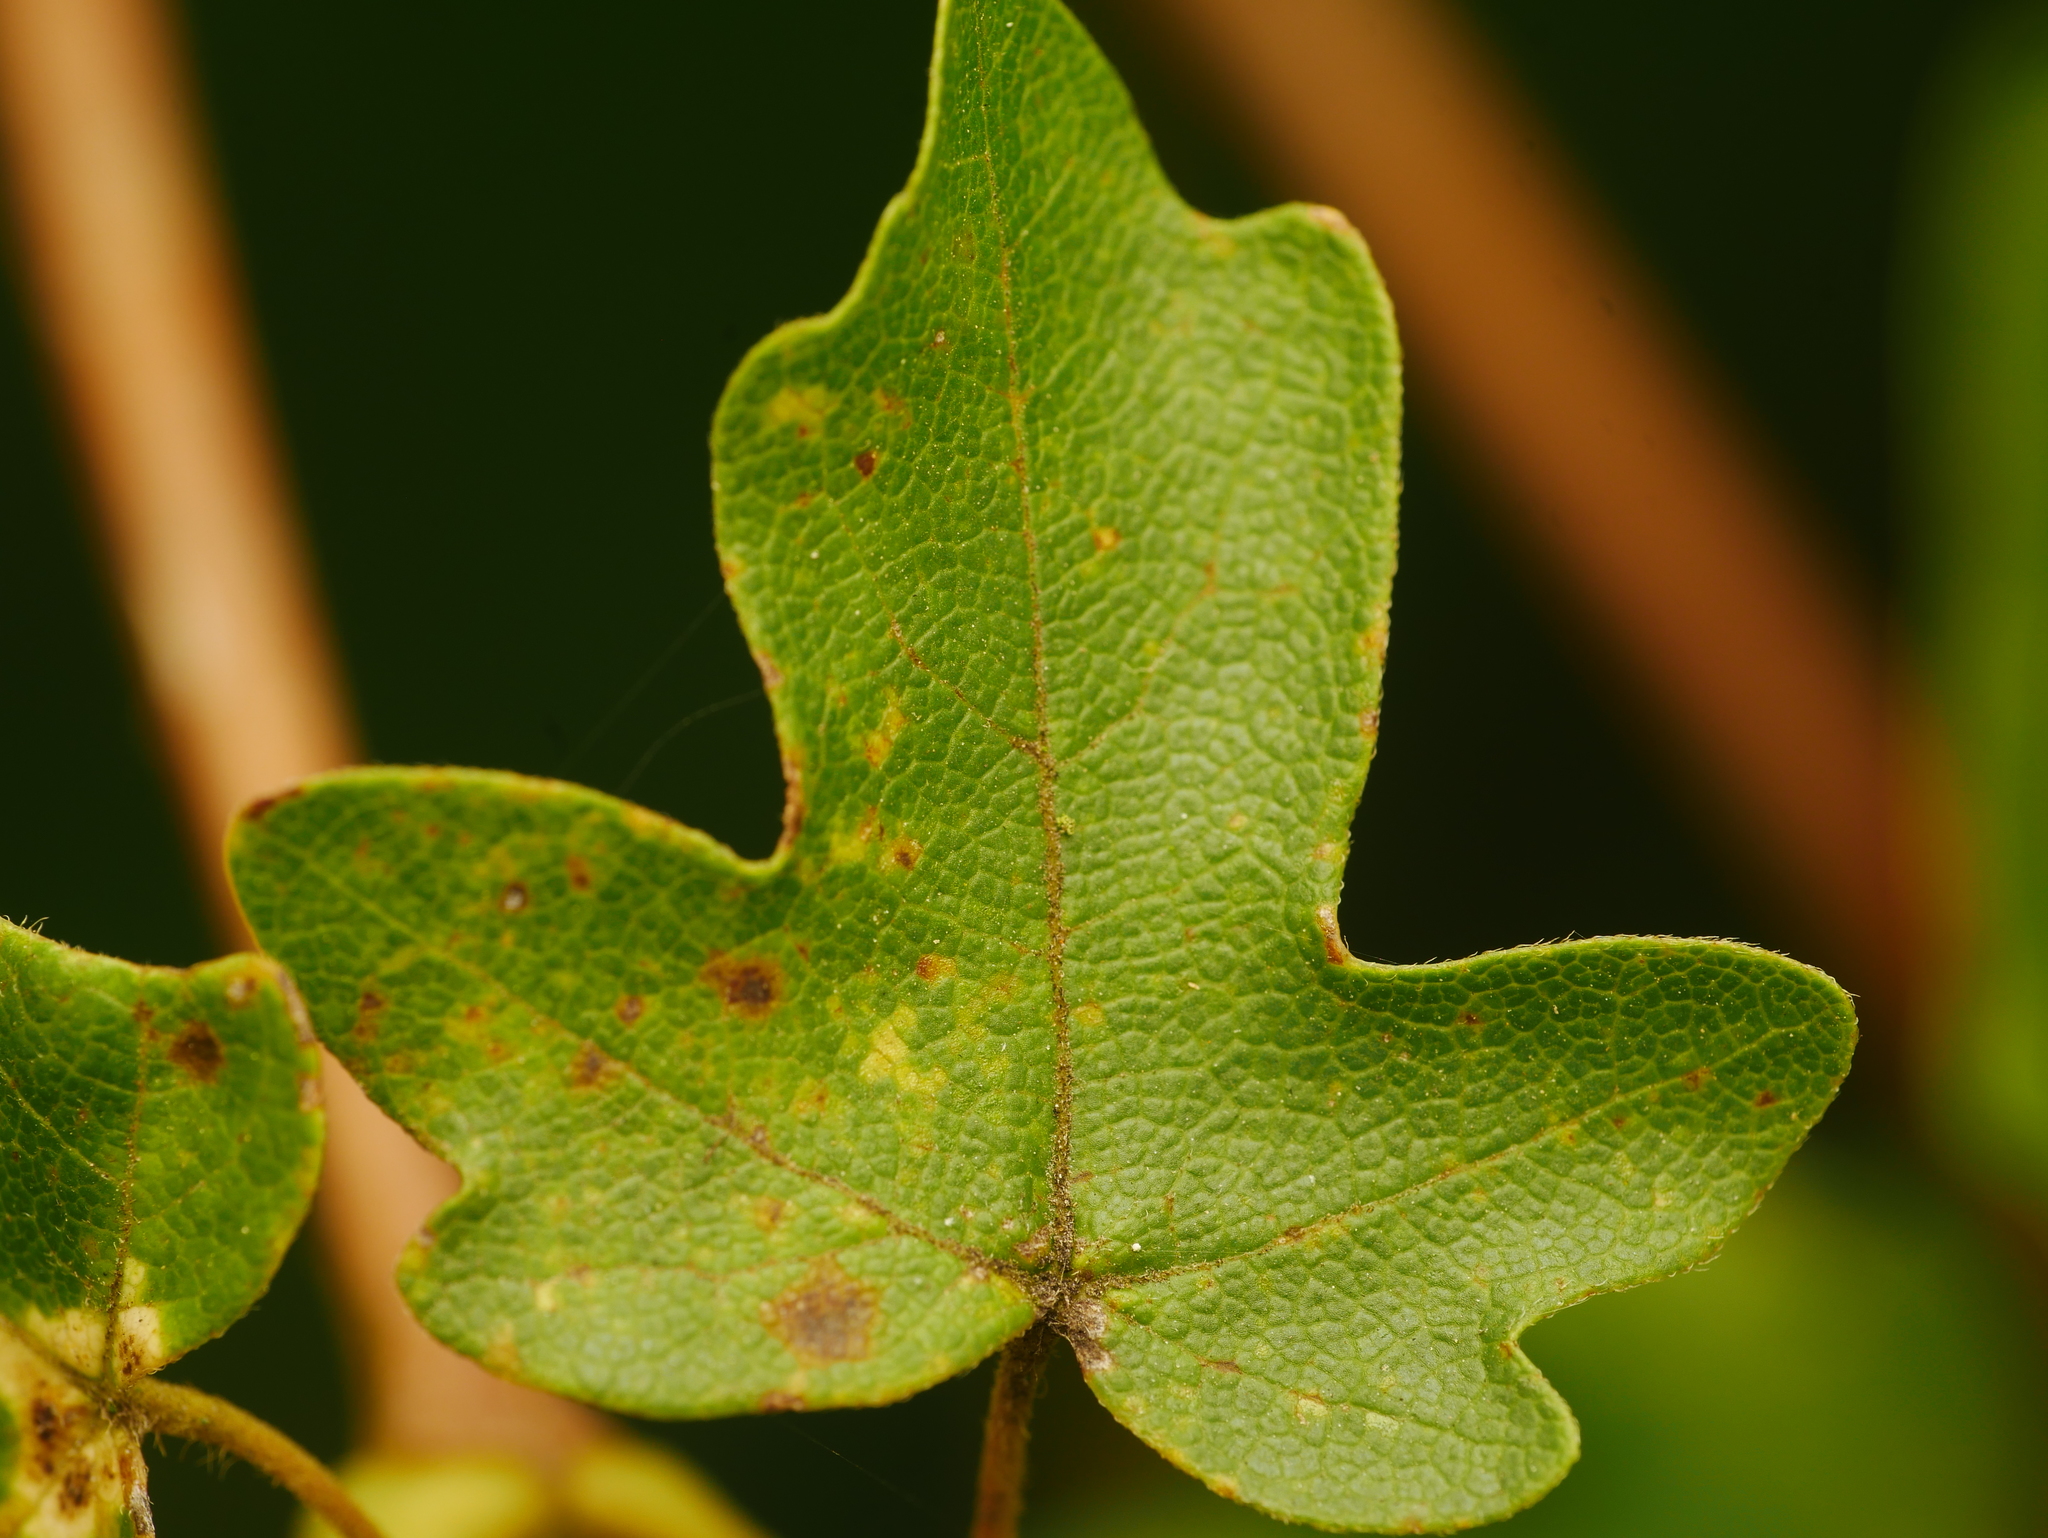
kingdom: Plantae
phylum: Tracheophyta
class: Magnoliopsida
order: Sapindales
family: Sapindaceae
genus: Acer
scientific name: Acer campestre
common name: Field maple
